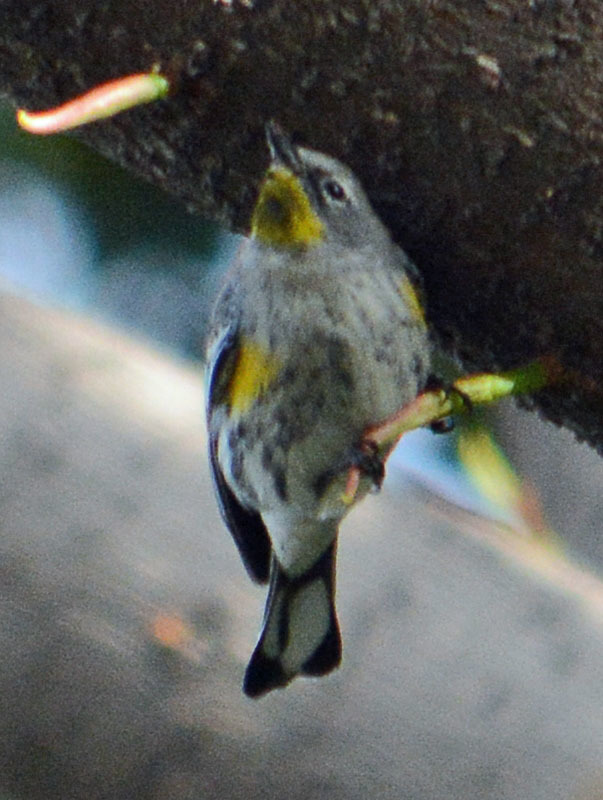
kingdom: Animalia
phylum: Chordata
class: Aves
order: Passeriformes
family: Parulidae
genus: Setophaga
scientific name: Setophaga coronata
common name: Myrtle warbler
